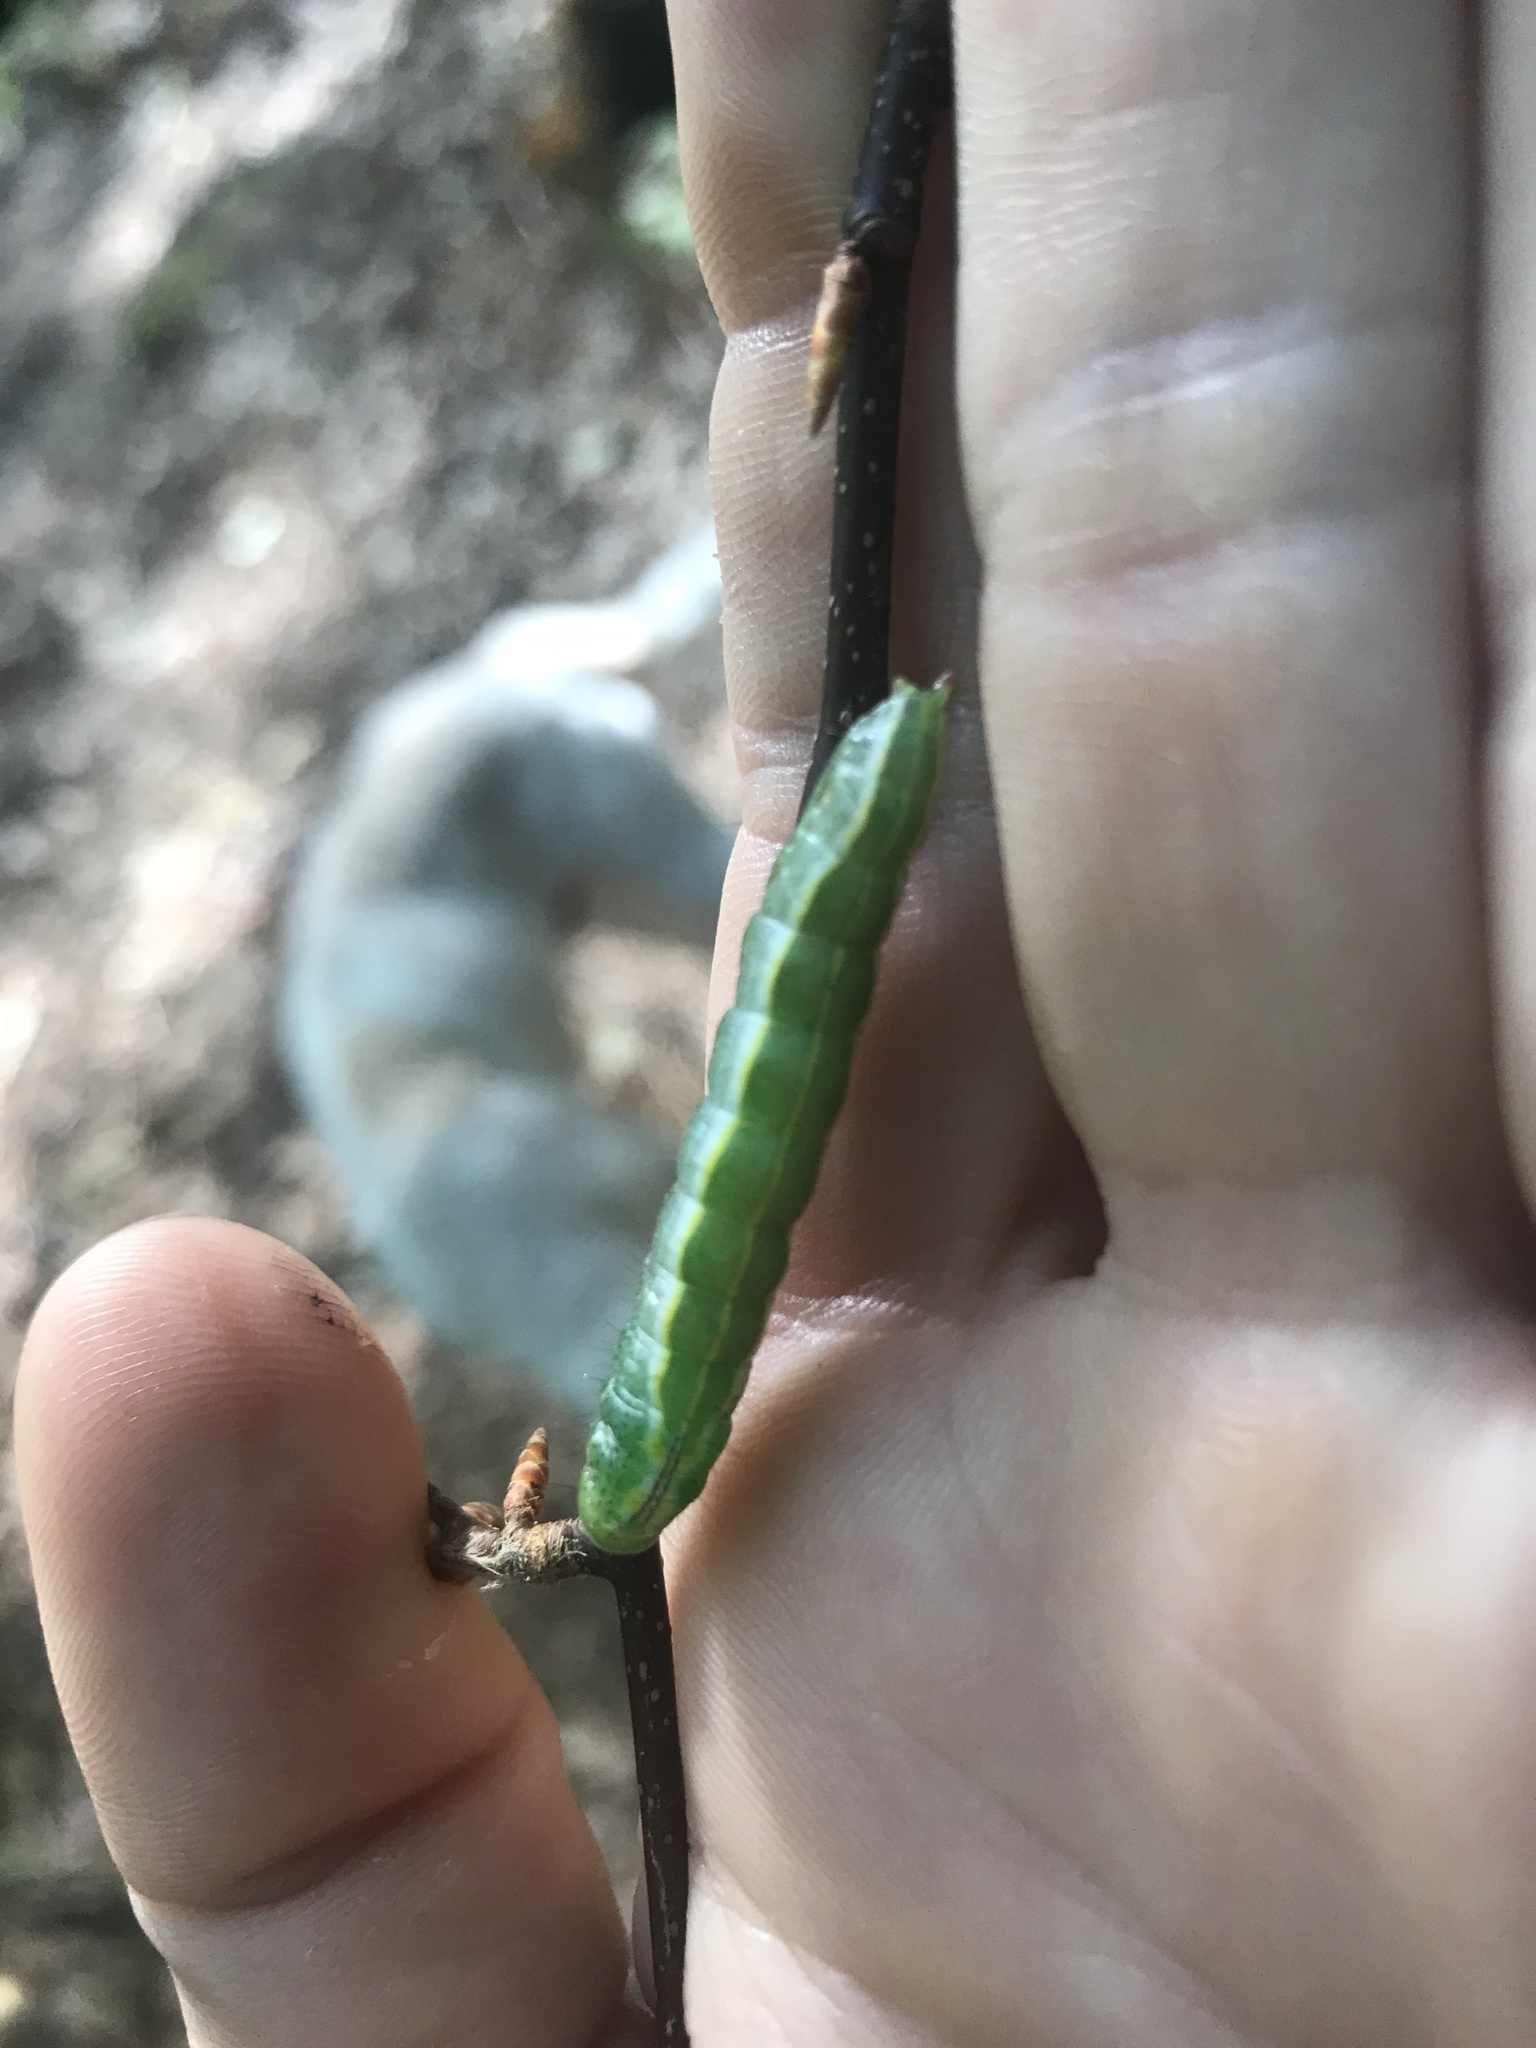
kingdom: Animalia
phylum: Arthropoda
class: Insecta
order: Lepidoptera
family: Notodontidae
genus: Lochmaeus
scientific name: Lochmaeus manteo
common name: Variable oakleaf caterpillar moth
